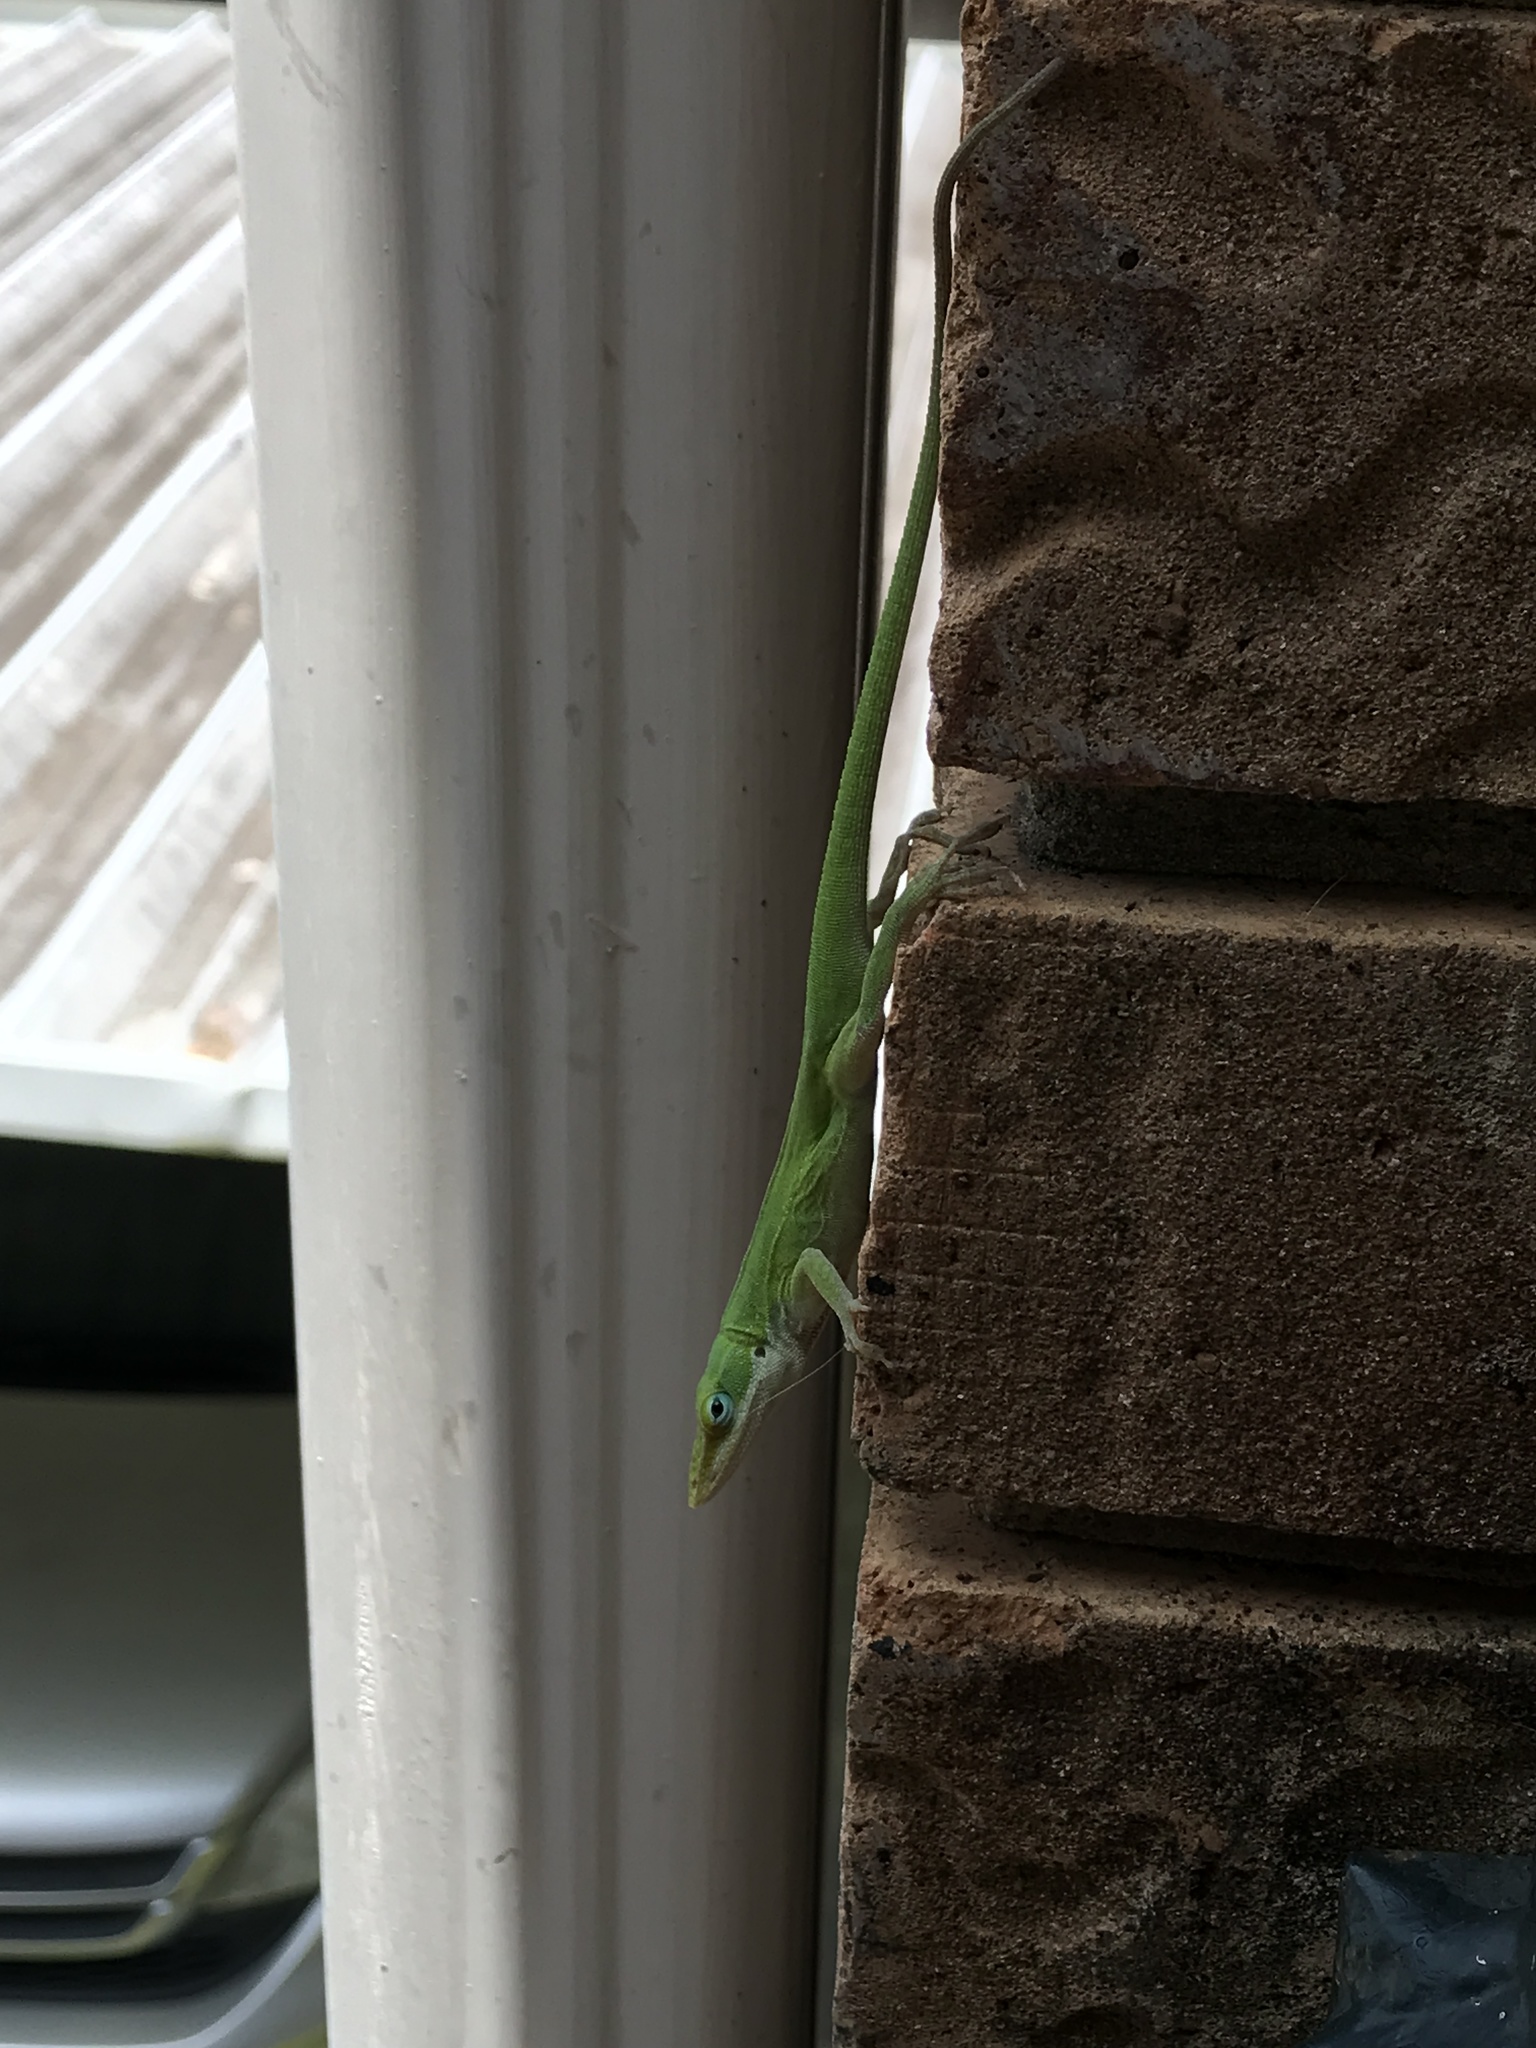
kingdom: Animalia
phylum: Chordata
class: Squamata
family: Dactyloidae
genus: Anolis
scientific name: Anolis carolinensis
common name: Green anole
